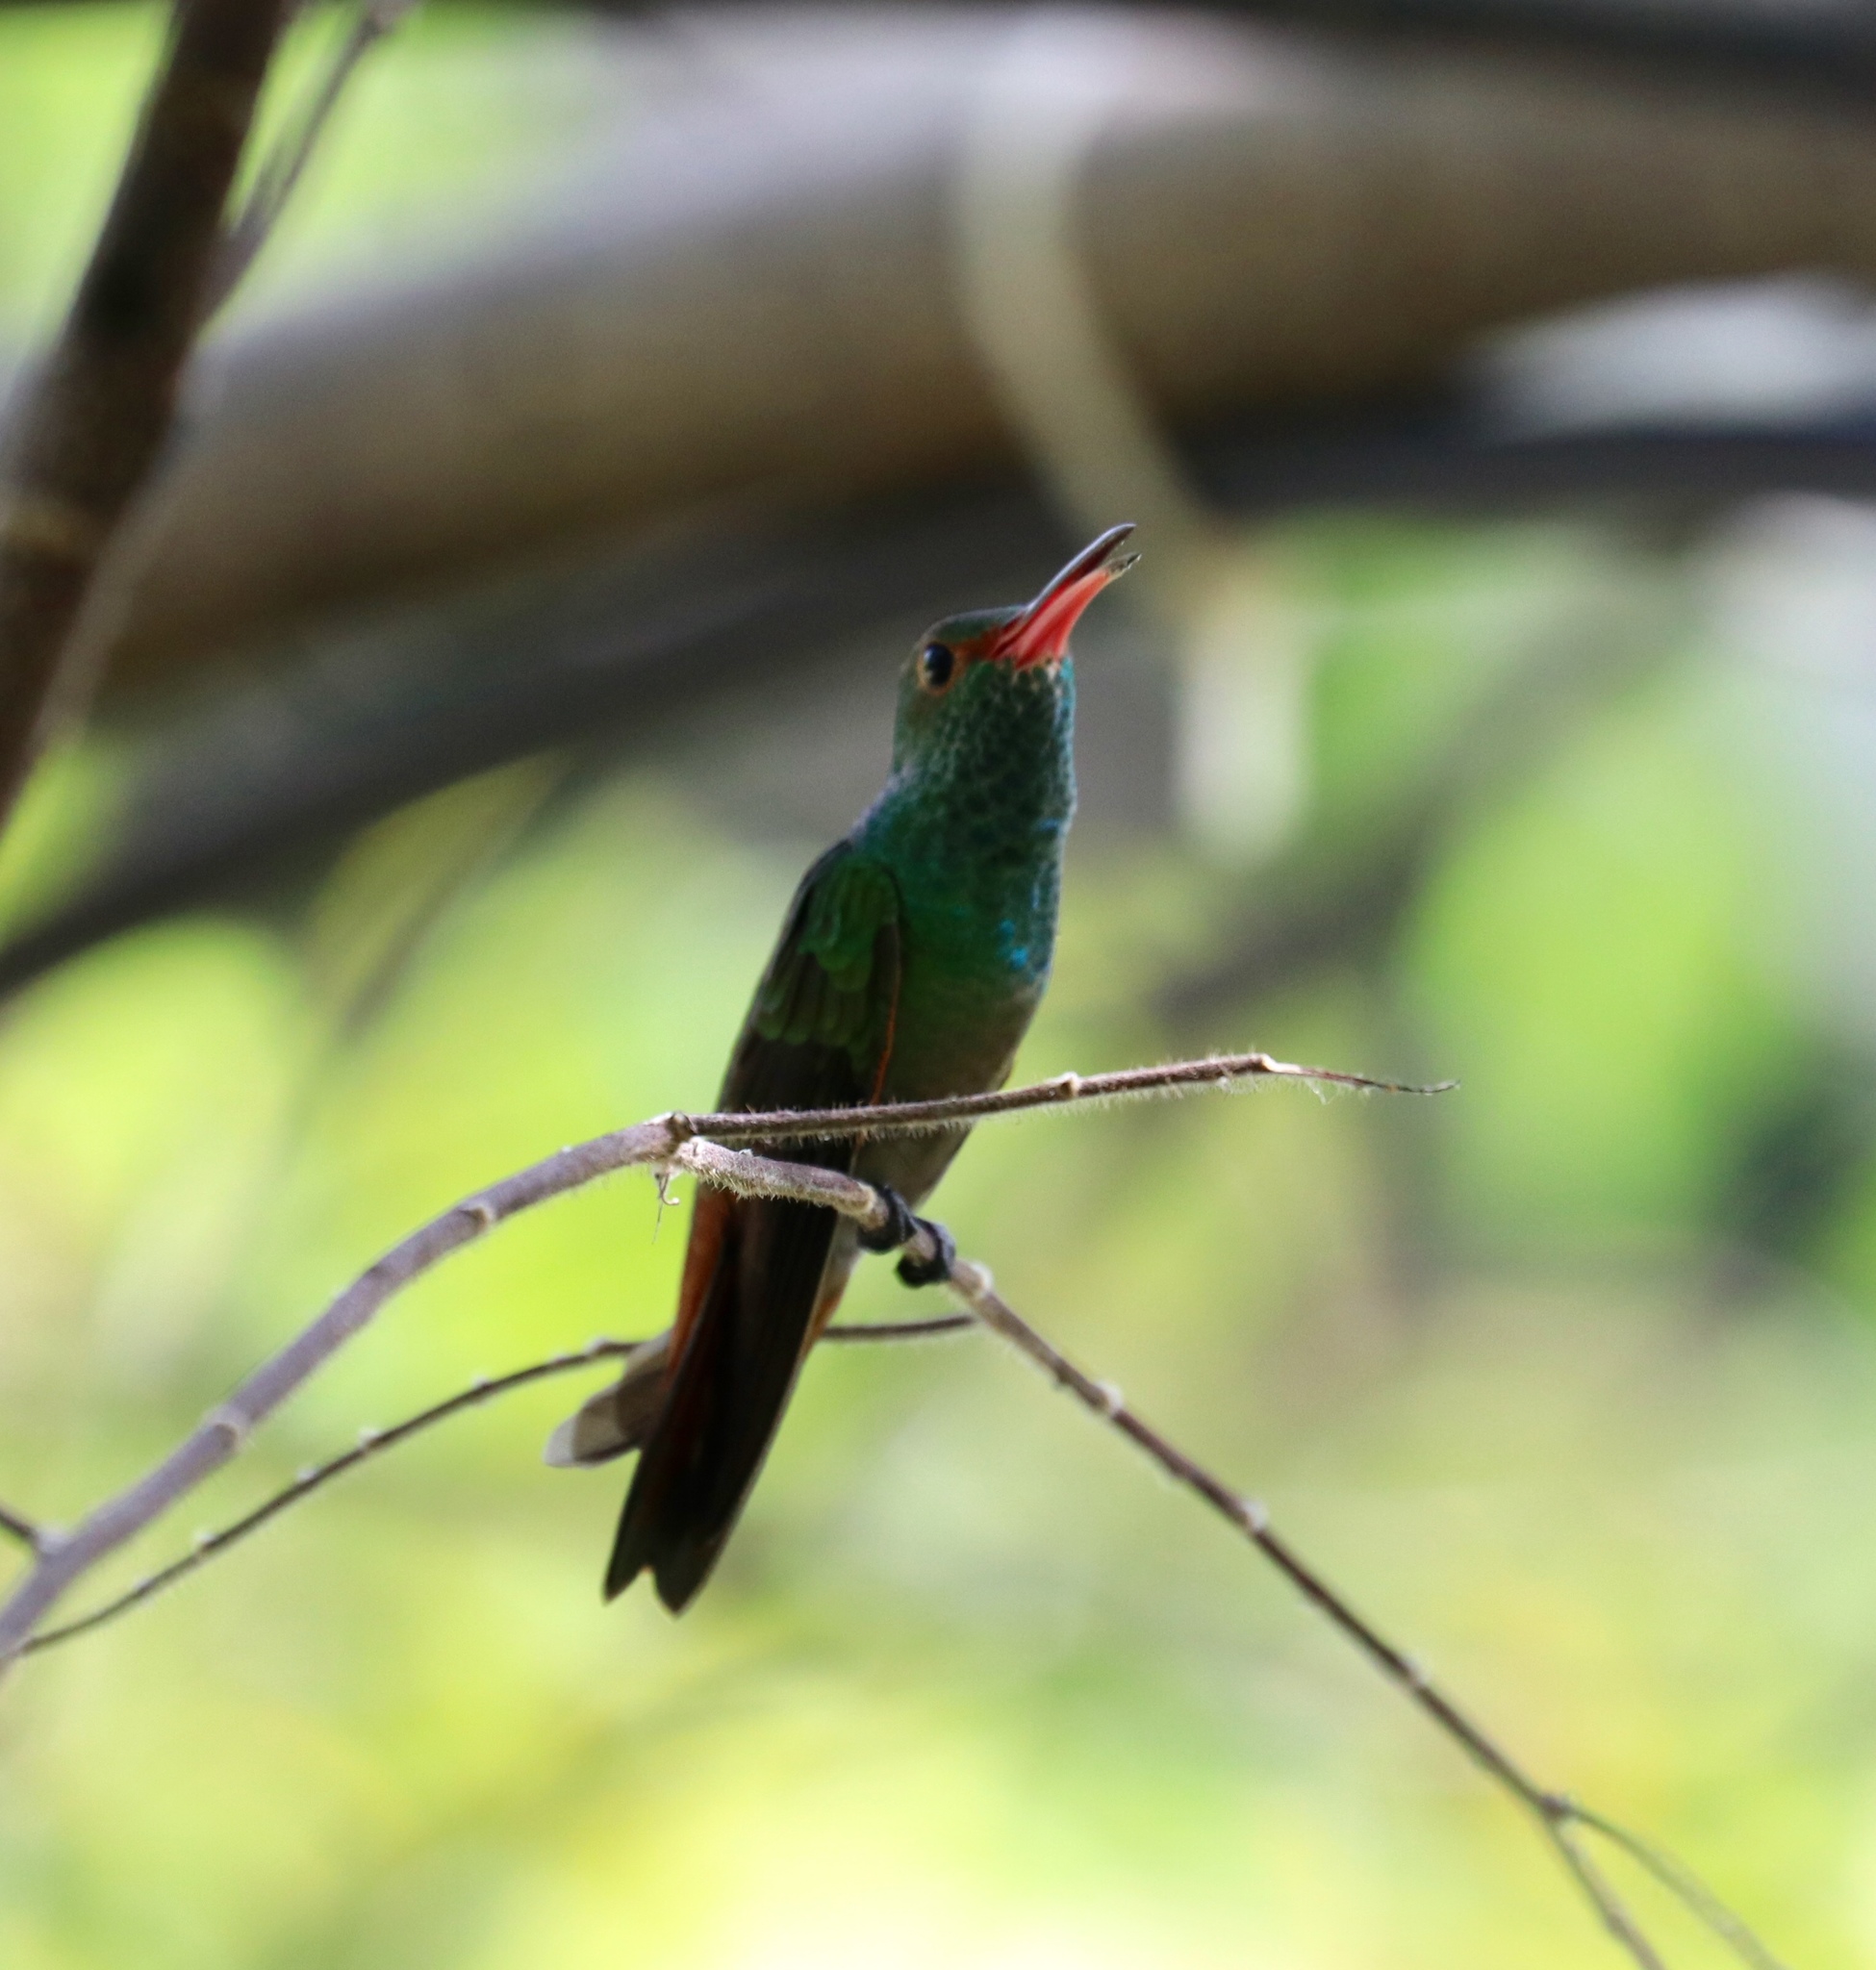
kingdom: Animalia
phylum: Chordata
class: Aves
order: Apodiformes
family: Trochilidae
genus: Amazilia
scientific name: Amazilia tzacatl
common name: Rufous-tailed hummingbird
